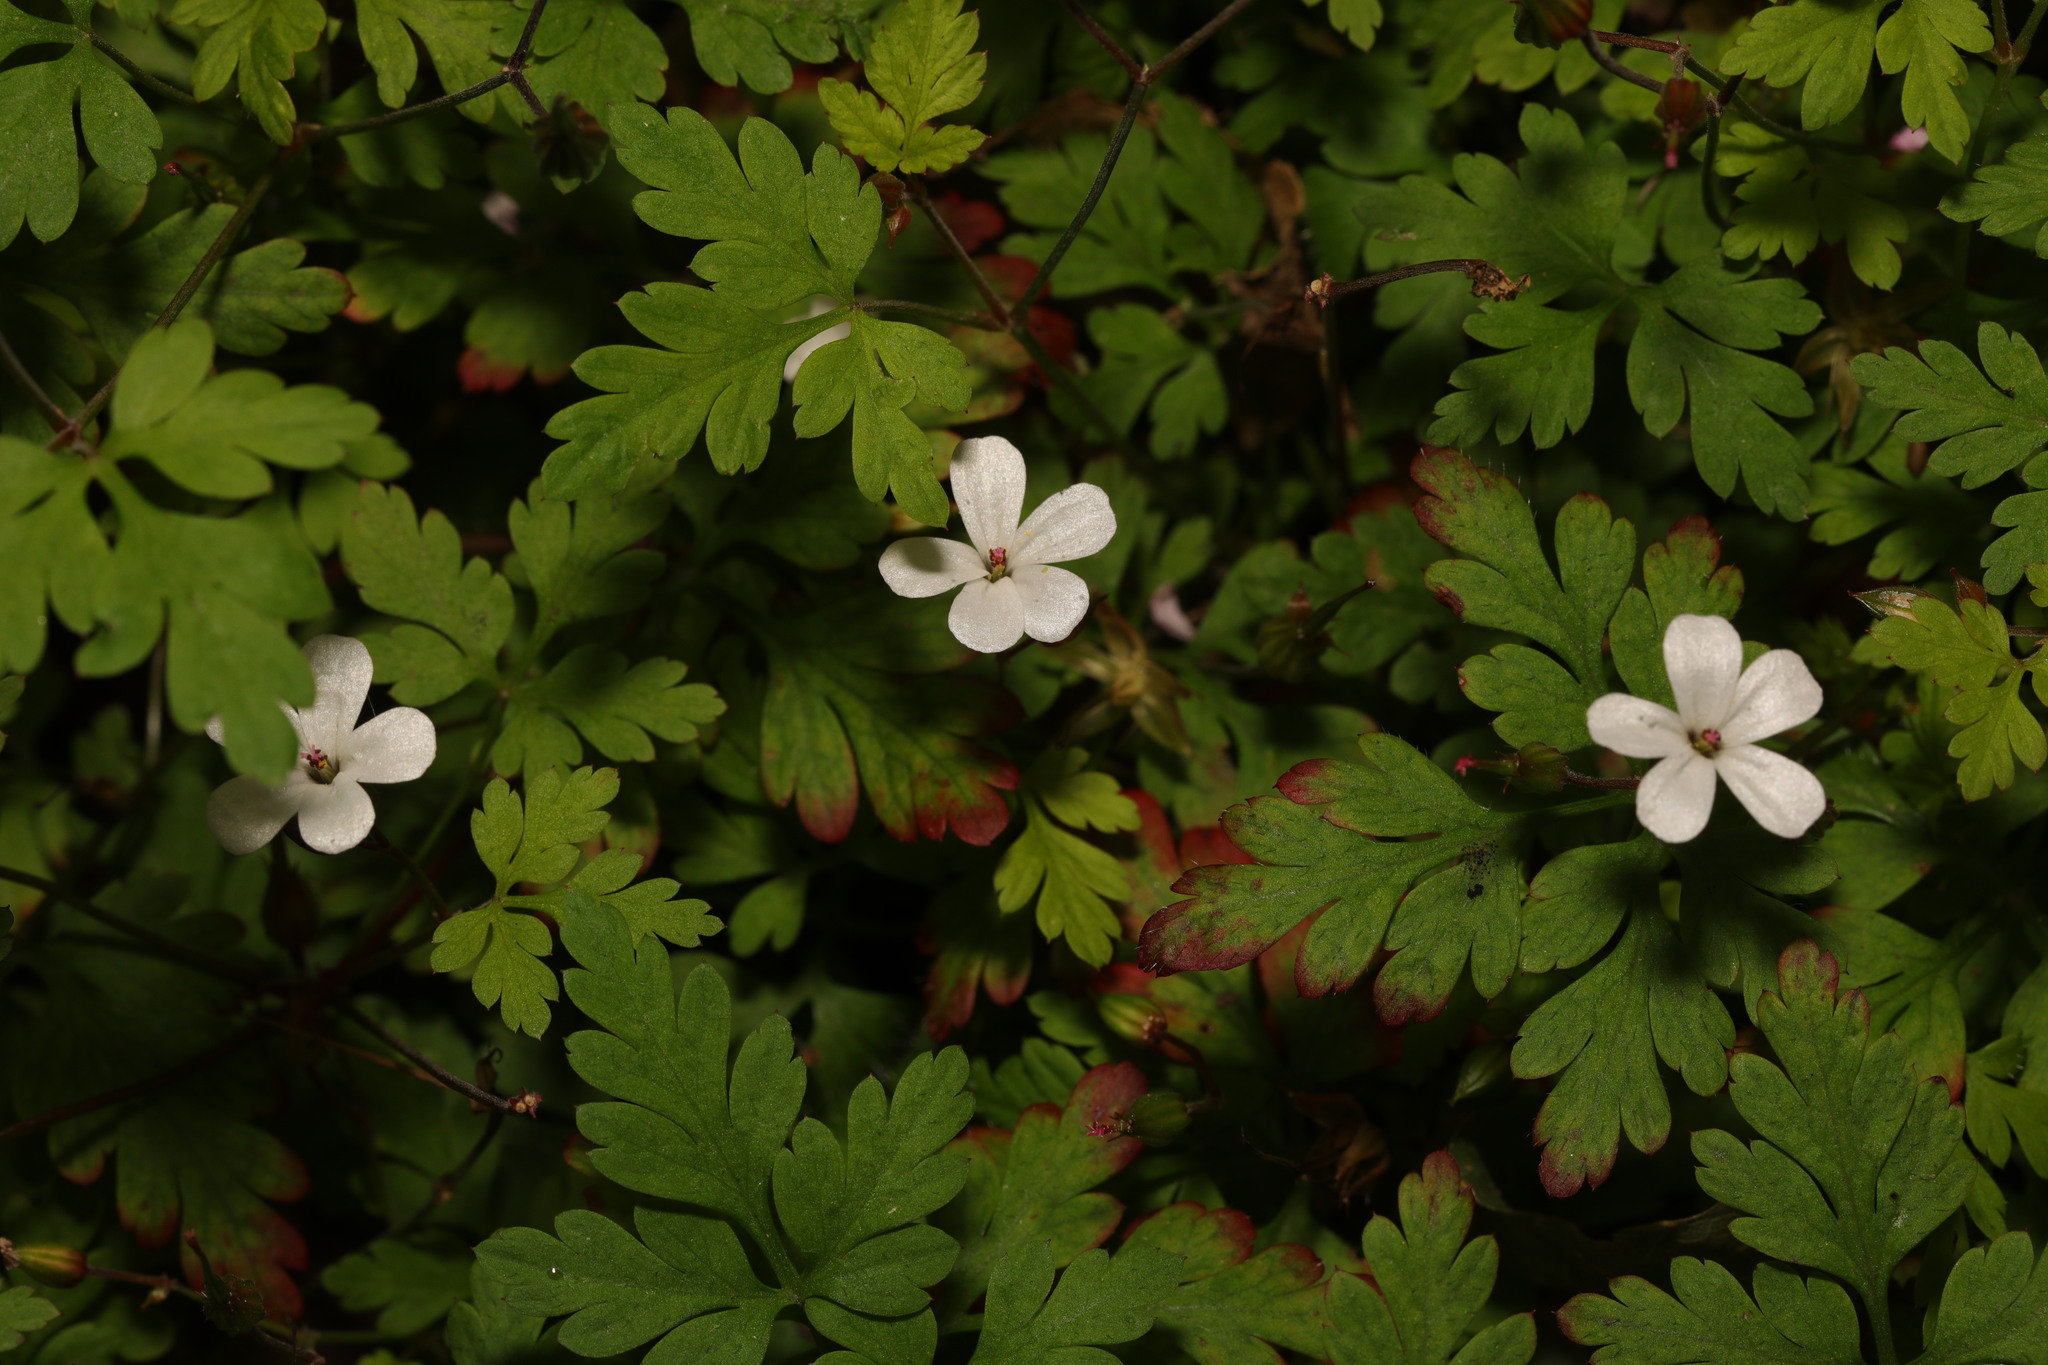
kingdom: Plantae
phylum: Tracheophyta
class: Magnoliopsida
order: Geraniales
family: Geraniaceae
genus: Geranium
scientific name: Geranium robertianum
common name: Herb-robert
